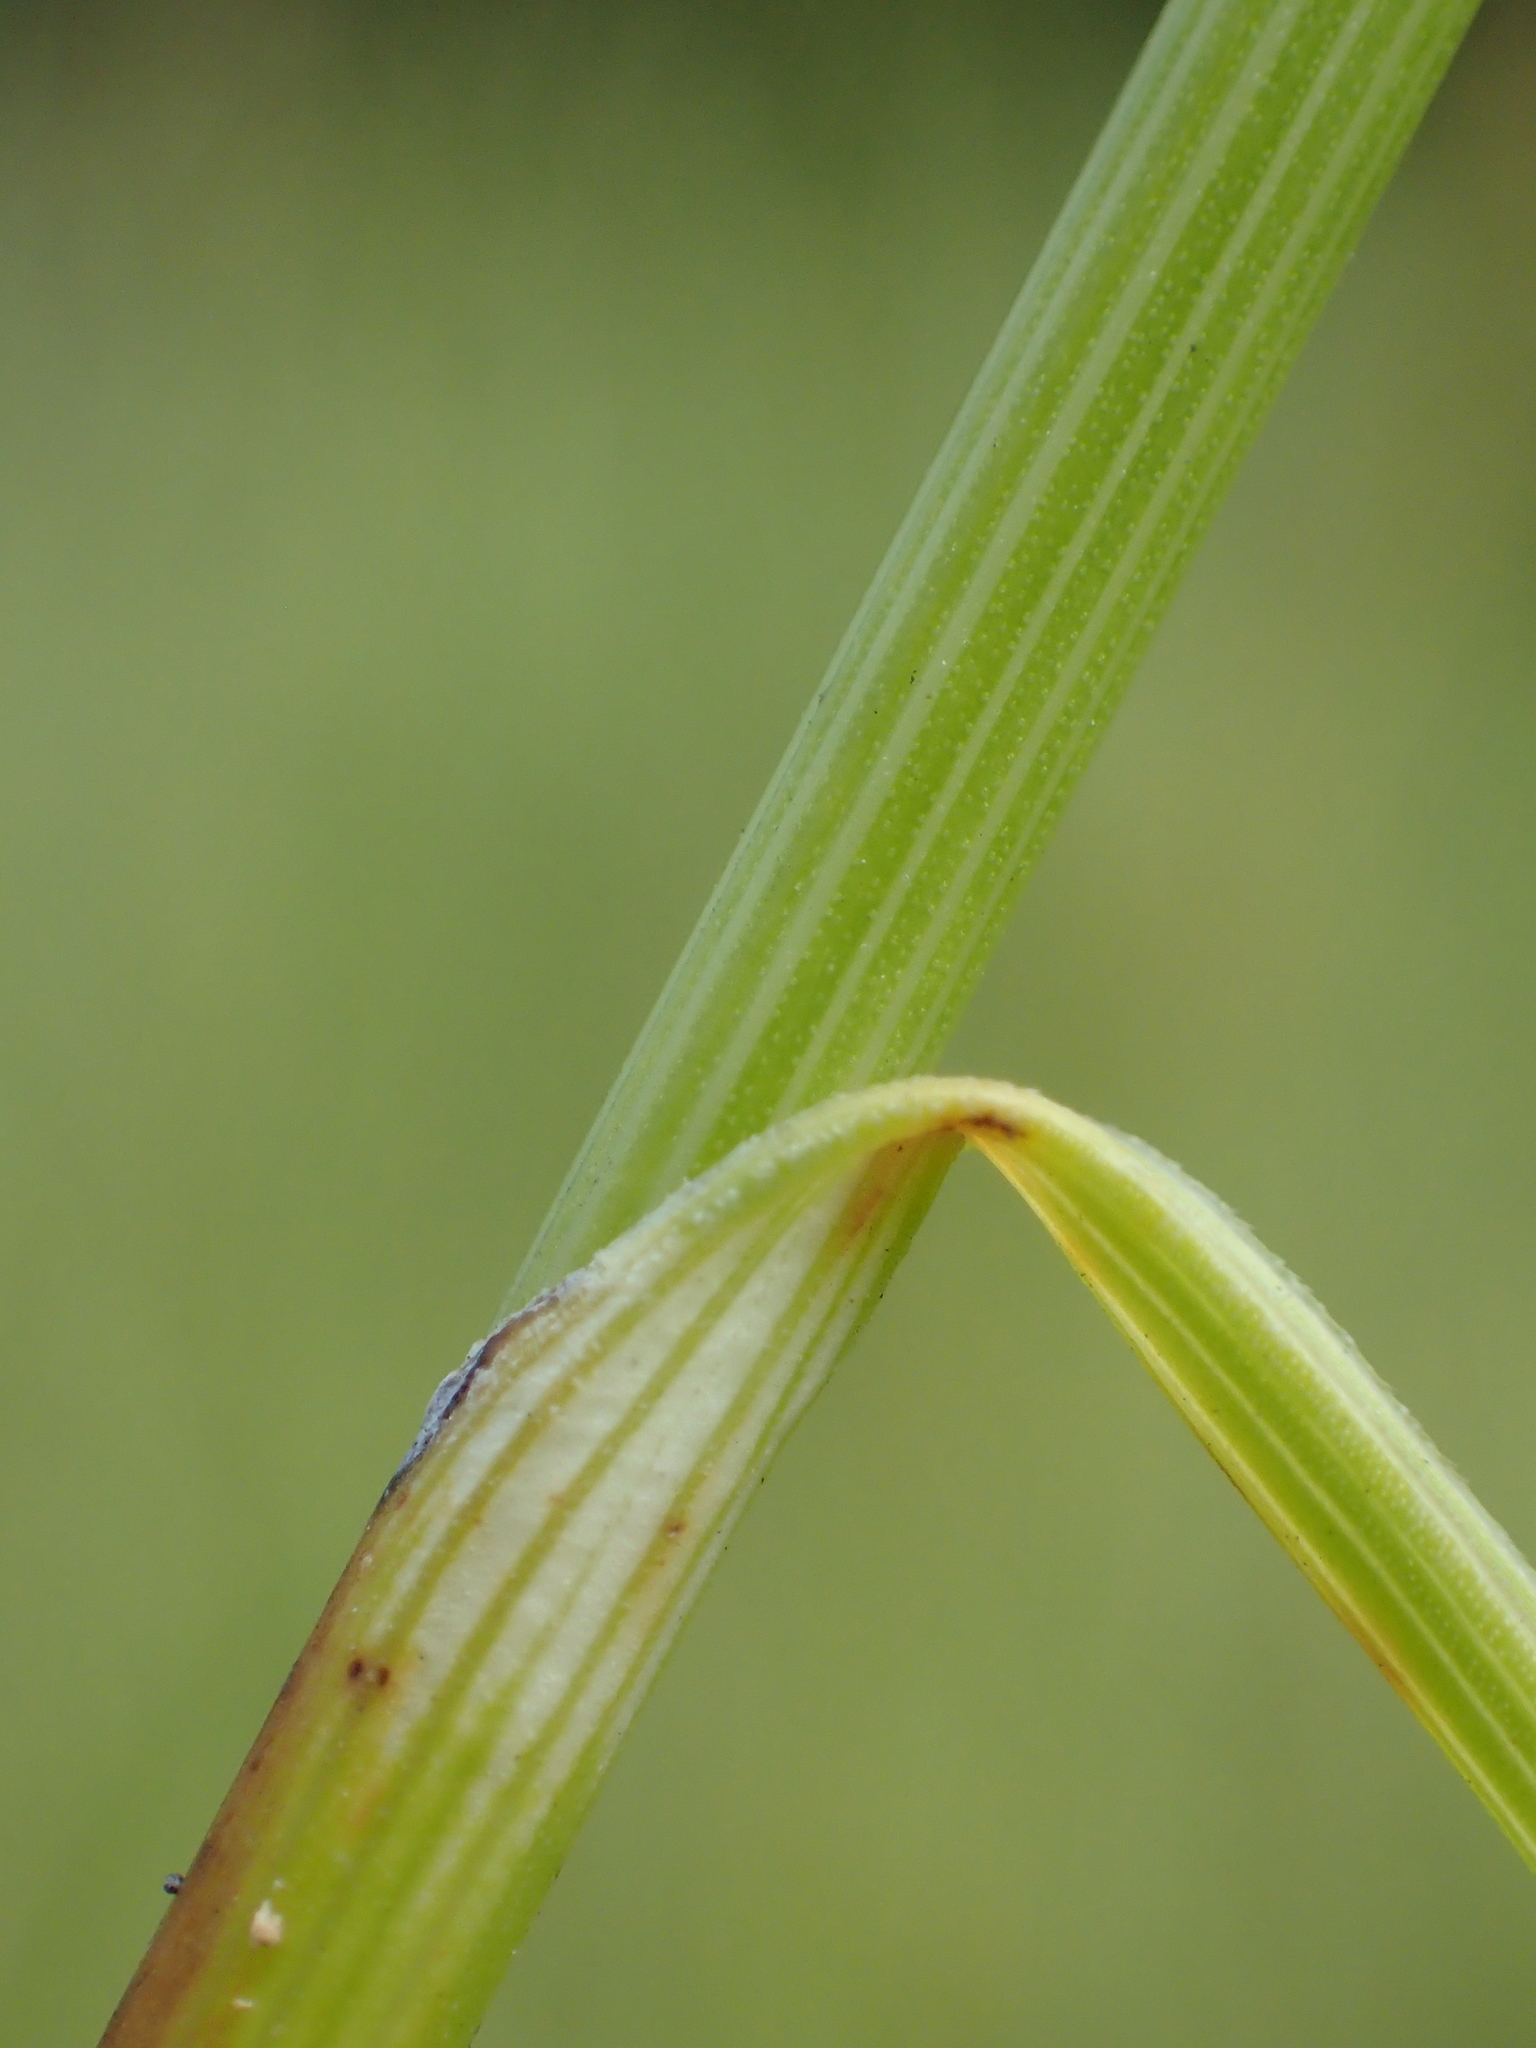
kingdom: Plantae
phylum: Tracheophyta
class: Liliopsida
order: Poales
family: Cyperaceae
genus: Schoenus
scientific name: Schoenus falcatus
